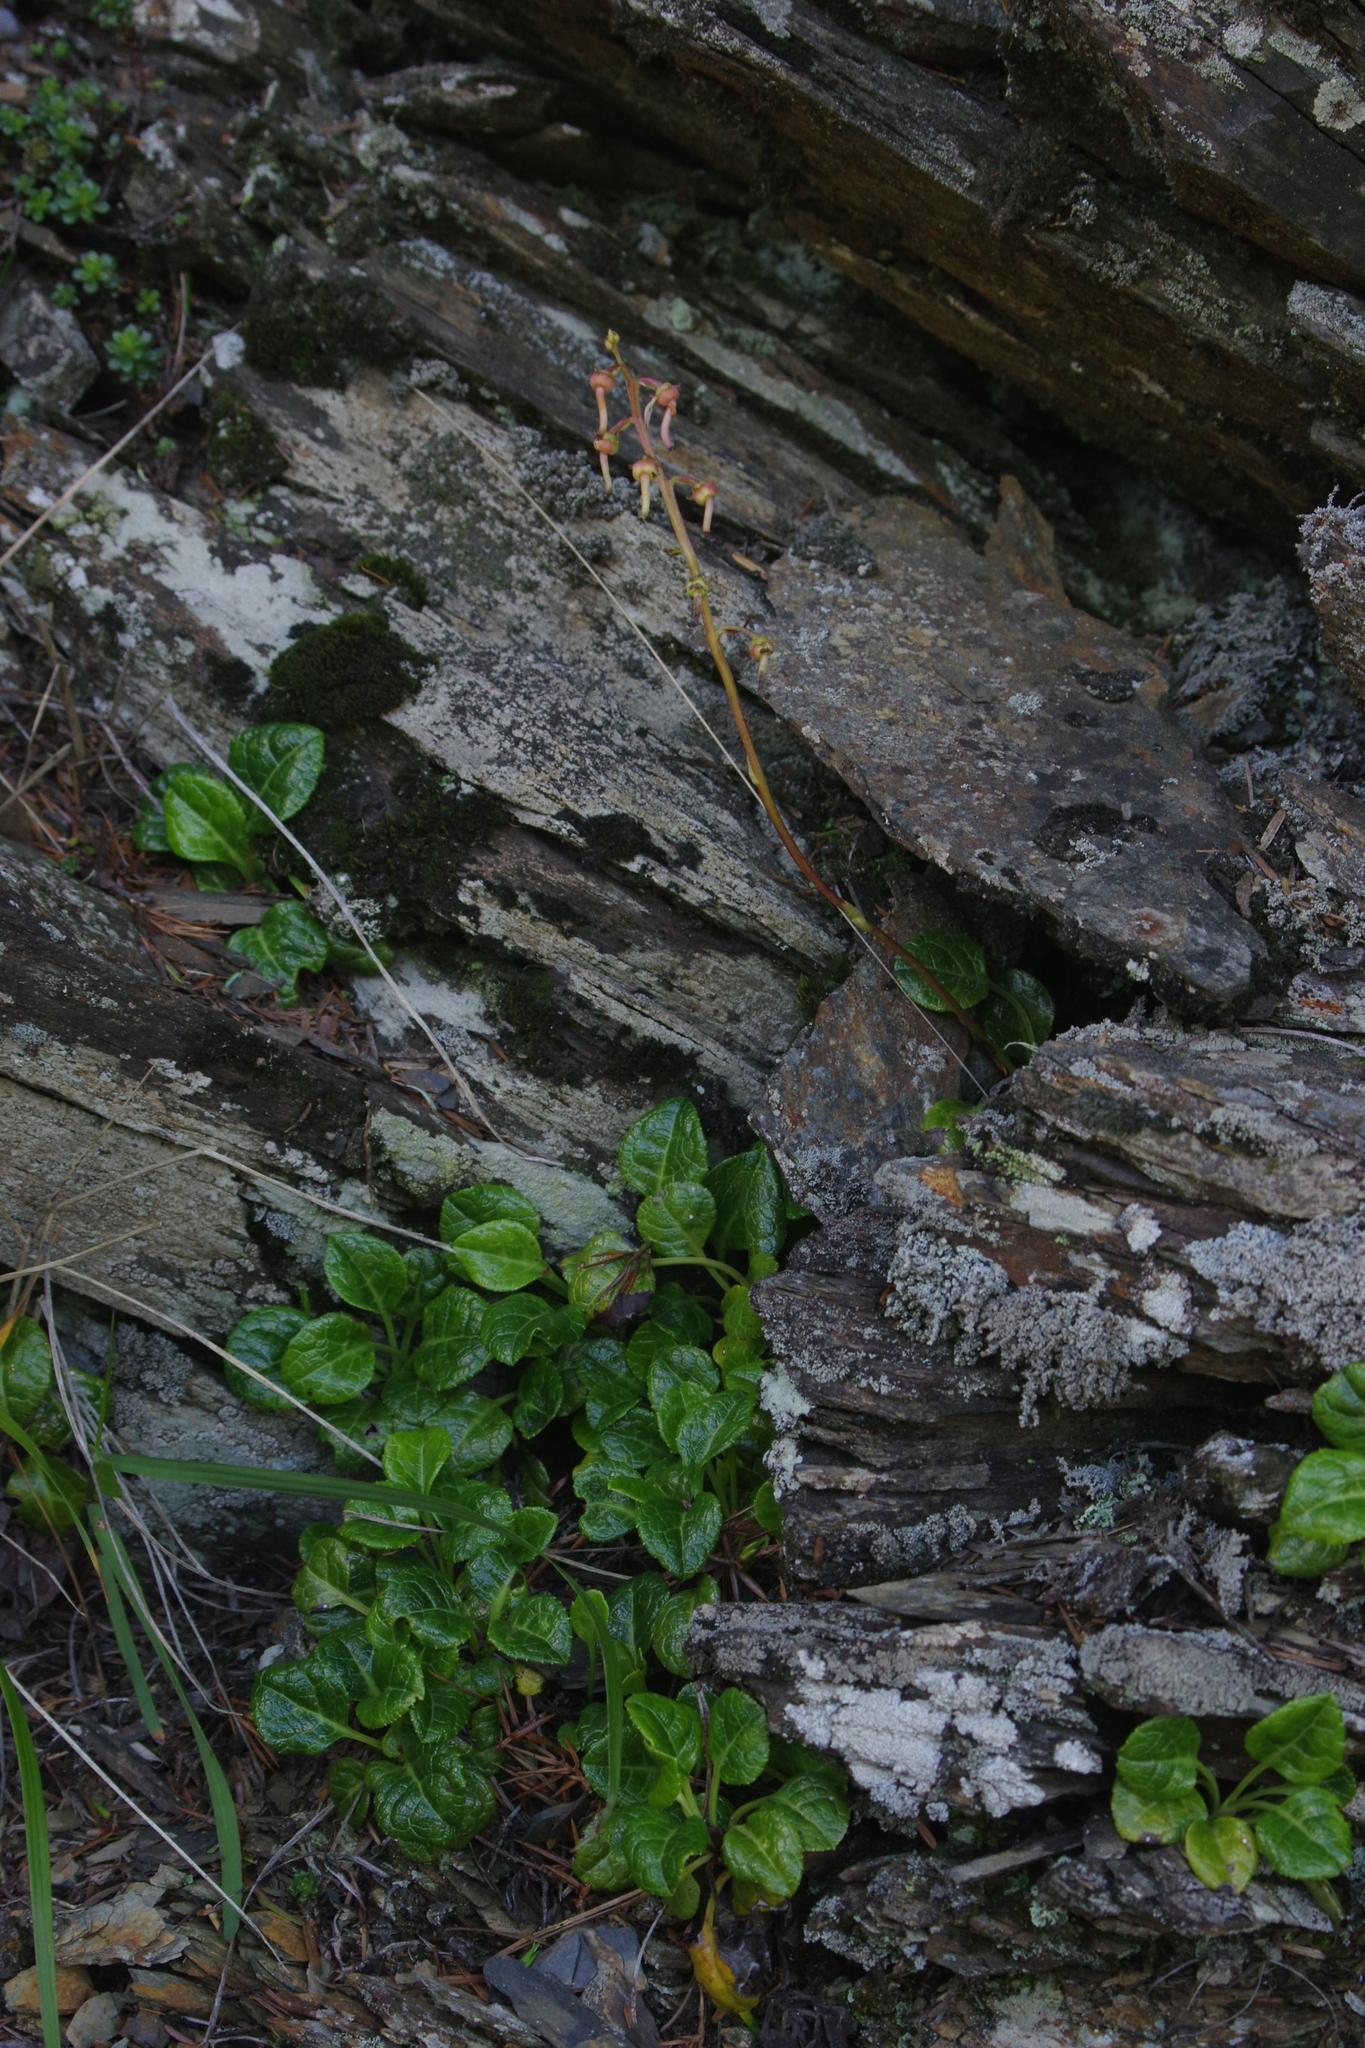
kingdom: Plantae
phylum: Tracheophyta
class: Magnoliopsida
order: Ericales
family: Ericaceae
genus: Pyrola
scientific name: Pyrola morrisonensis
